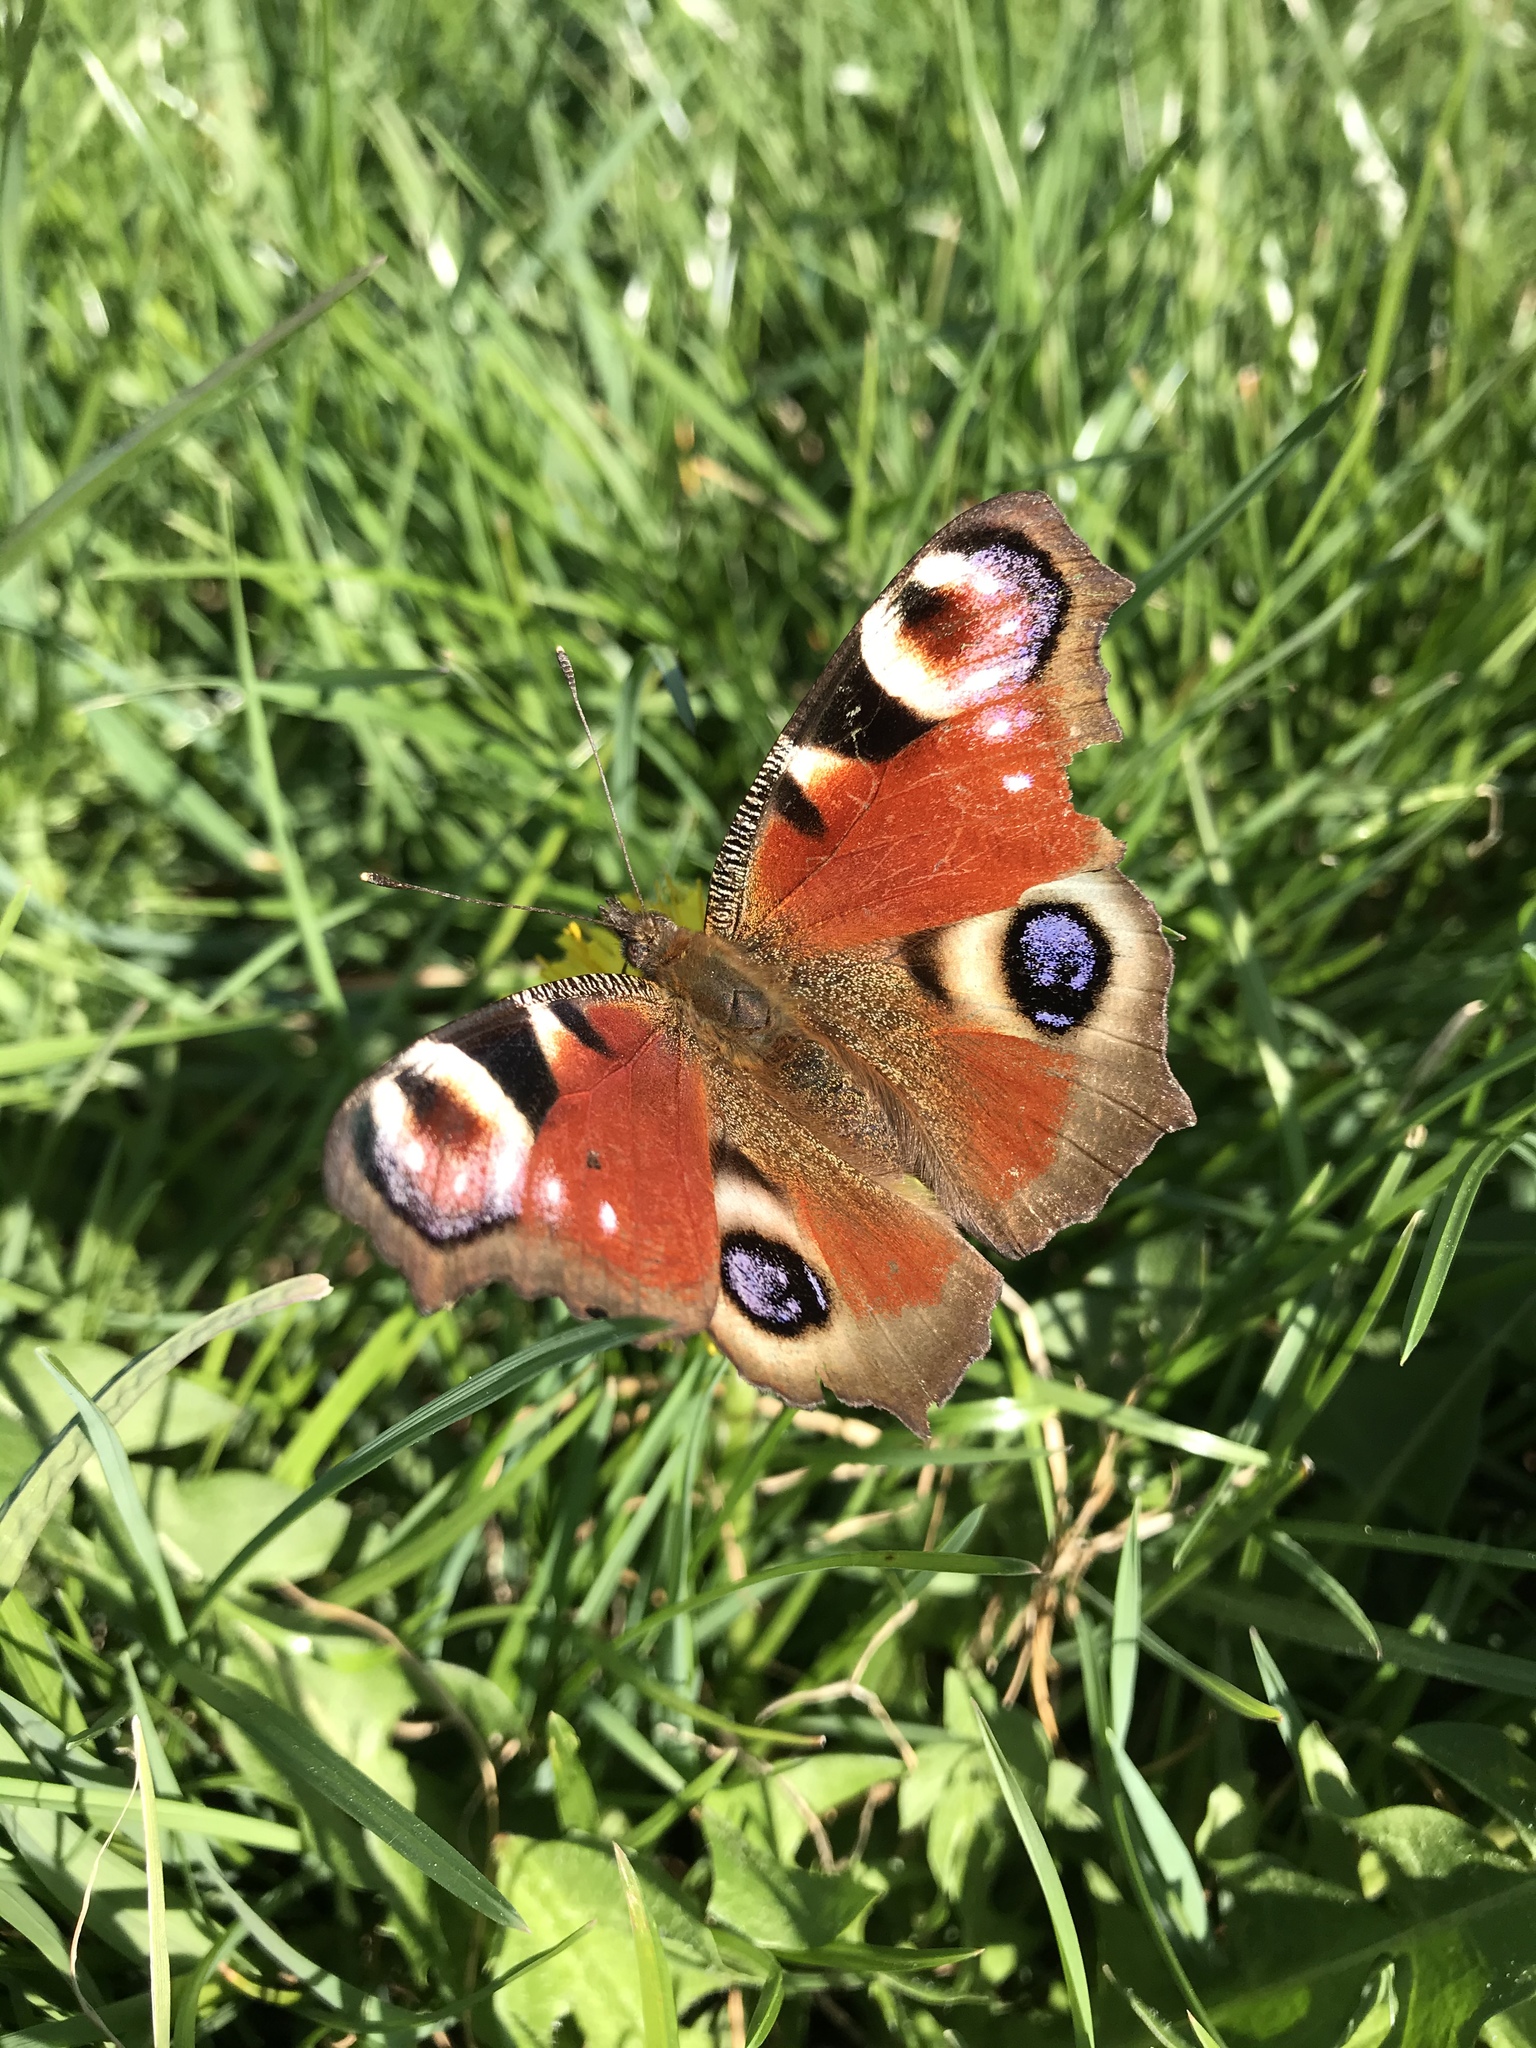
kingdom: Animalia
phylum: Arthropoda
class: Insecta
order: Lepidoptera
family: Nymphalidae
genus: Aglais
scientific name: Aglais io
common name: Peacock
